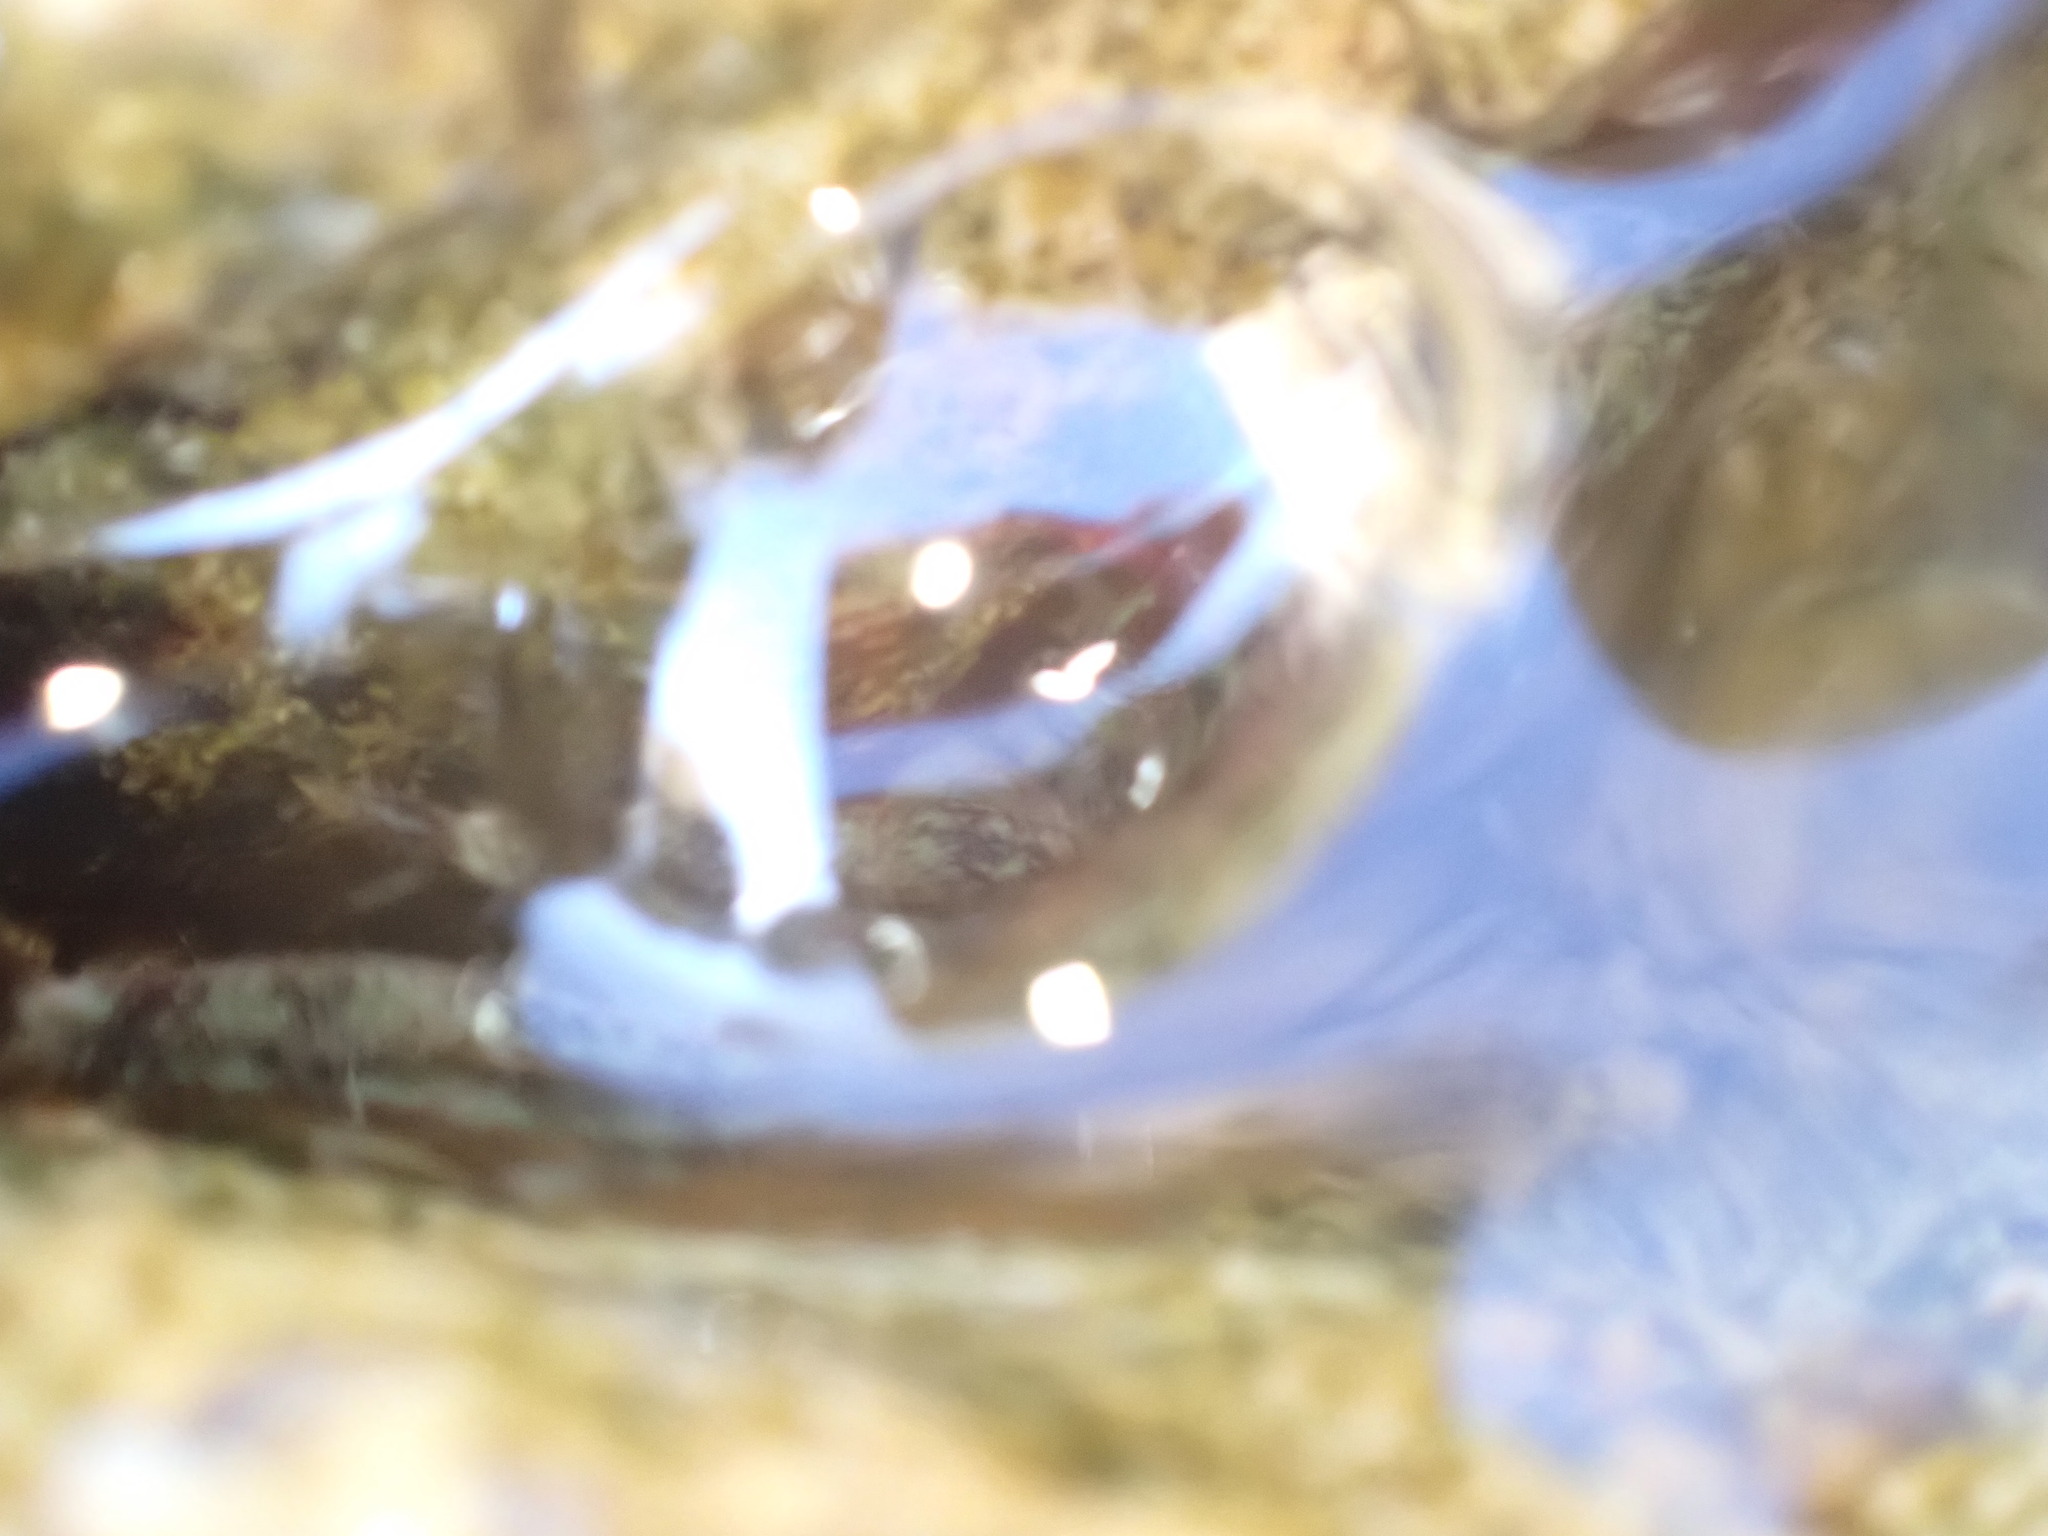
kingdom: Animalia
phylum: Arthropoda
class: Malacostraca
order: Decapoda
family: Grapsidae
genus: Pachygrapsus
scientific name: Pachygrapsus marmoratus
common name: Marbled rock crab
